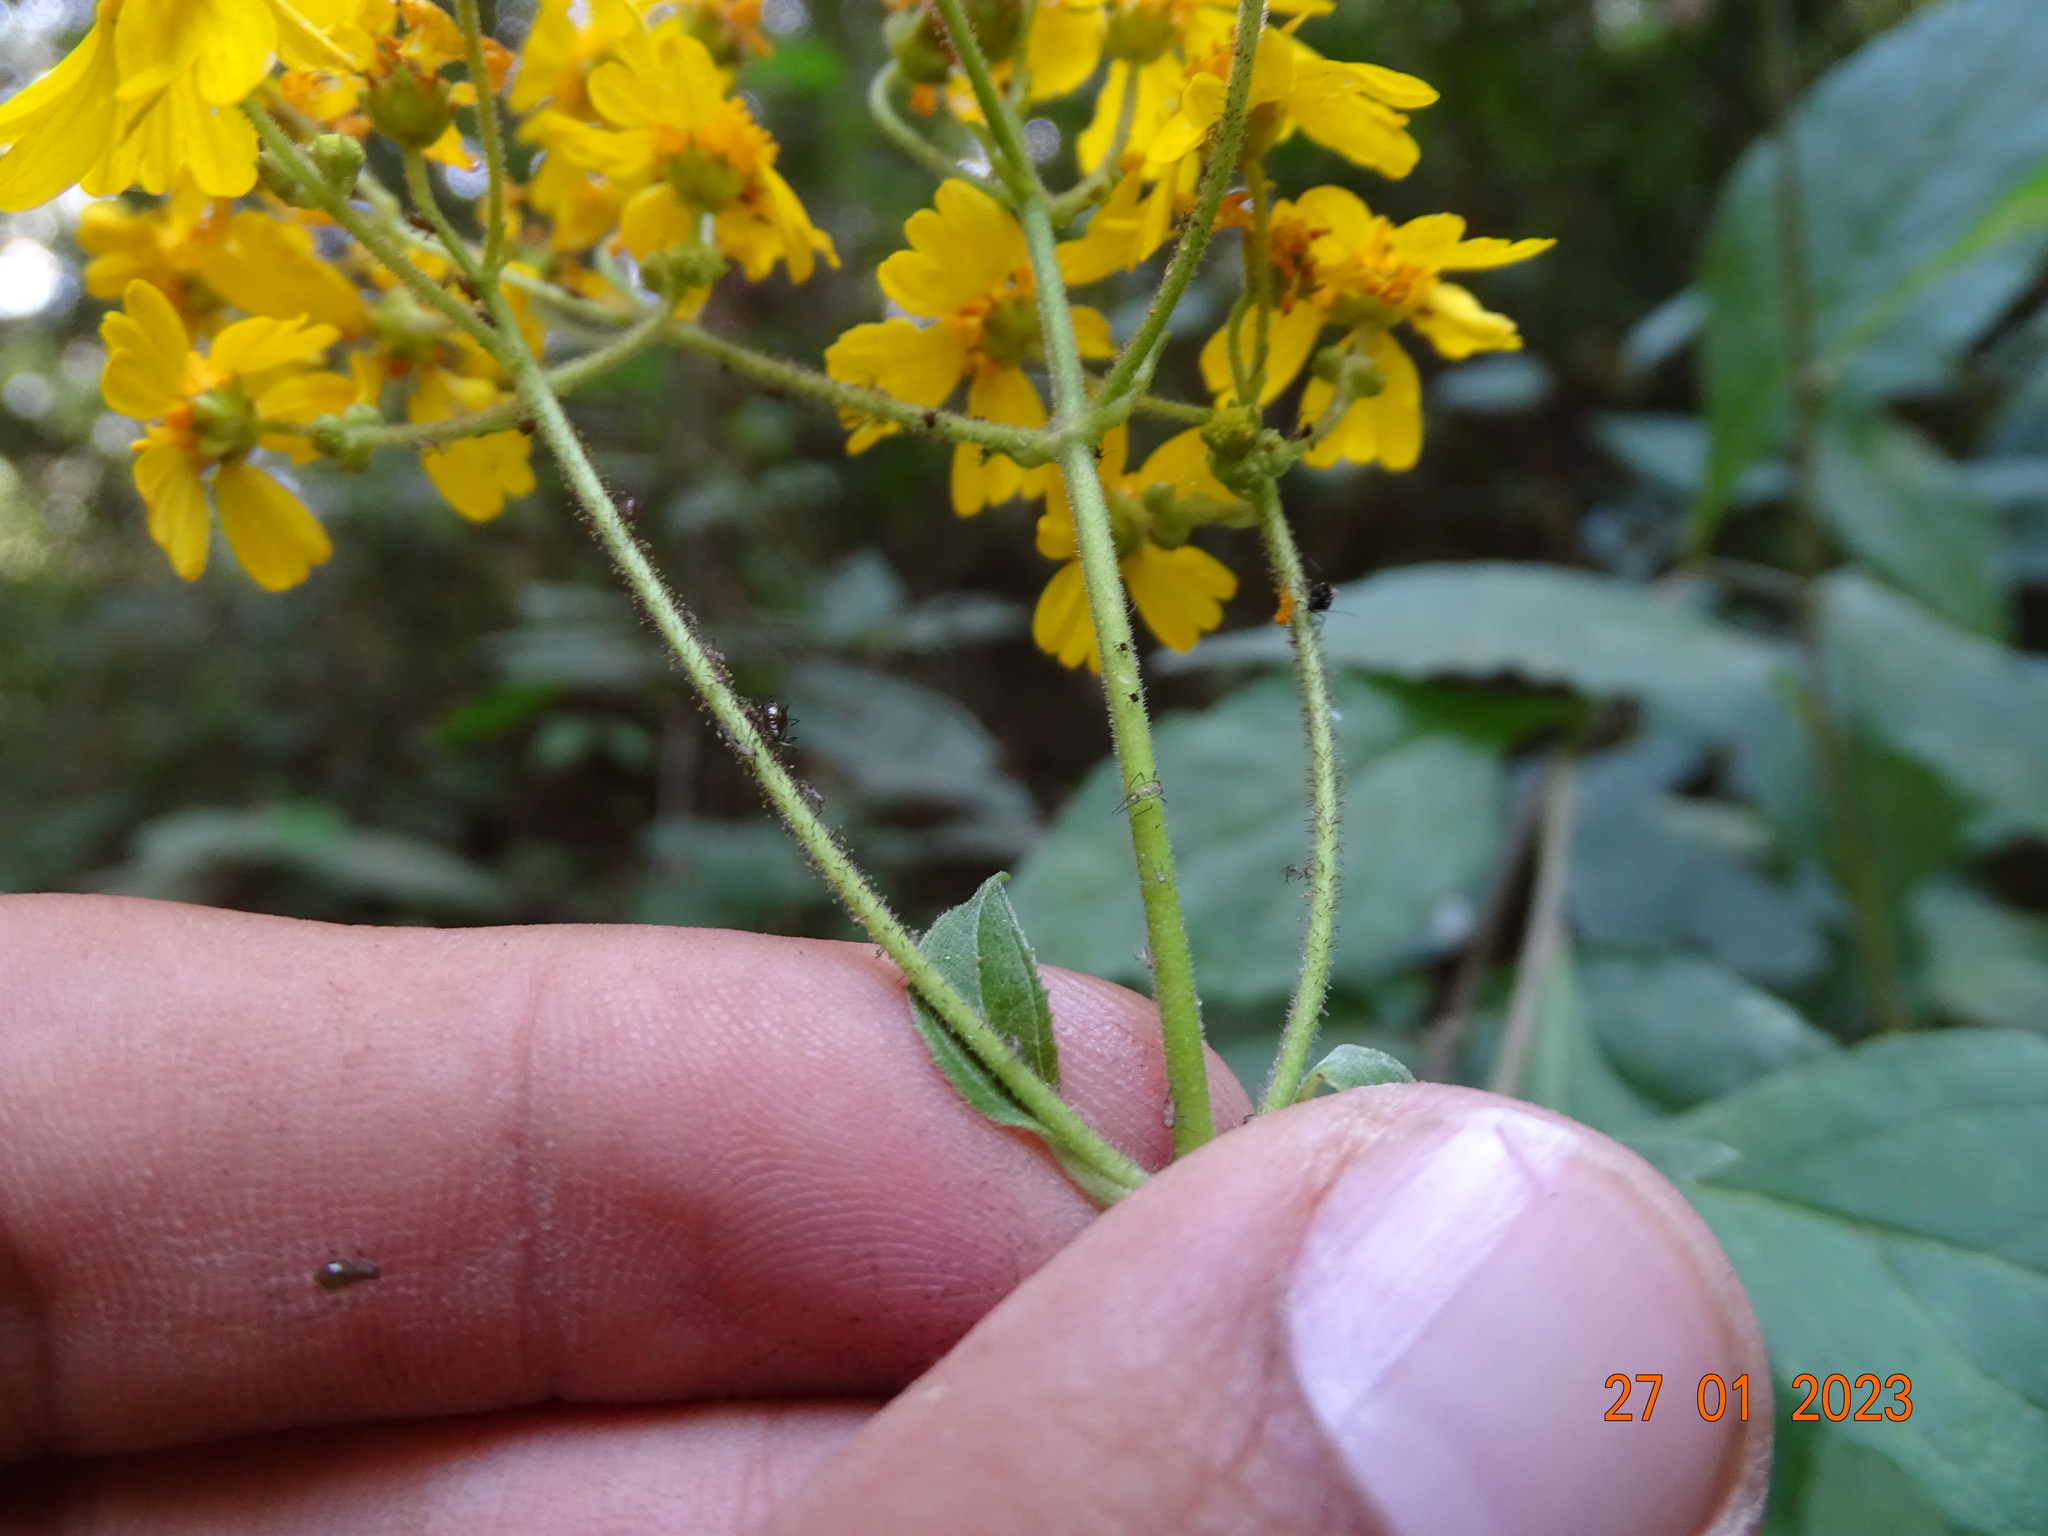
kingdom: Plantae
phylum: Tracheophyta
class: Magnoliopsida
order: Asterales
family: Asteraceae
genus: Trigonospermum
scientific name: Trigonospermum melampodioides
